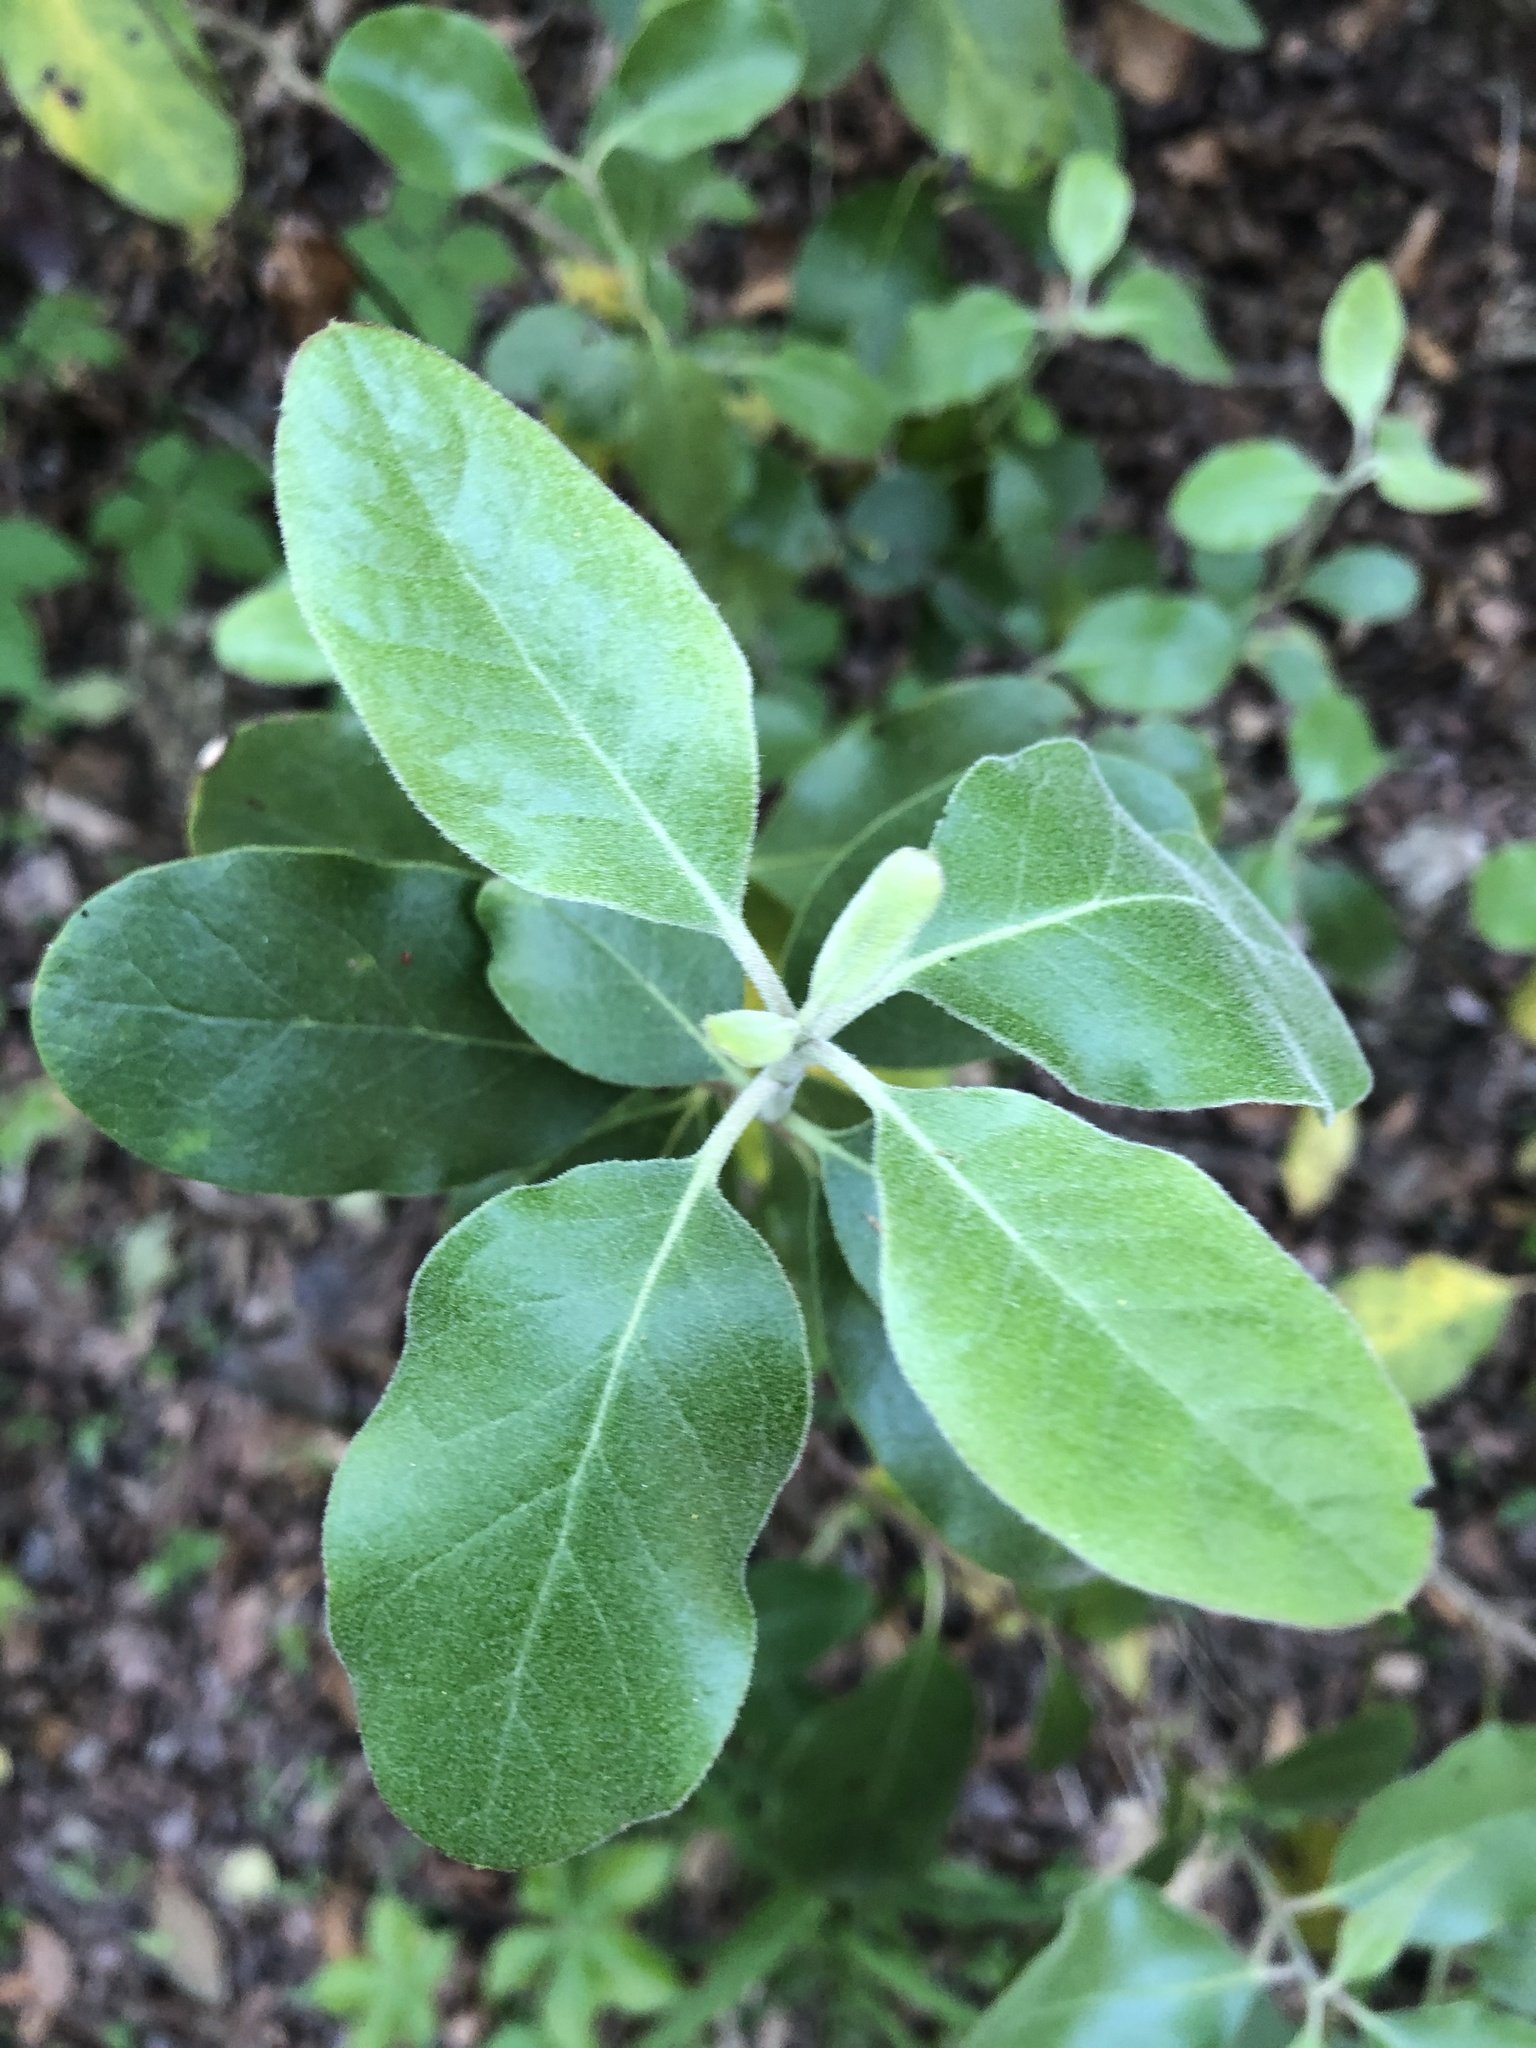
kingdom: Plantae
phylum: Tracheophyta
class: Magnoliopsida
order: Garryales
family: Garryaceae
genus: Garrya
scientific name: Garrya lindheimeri
